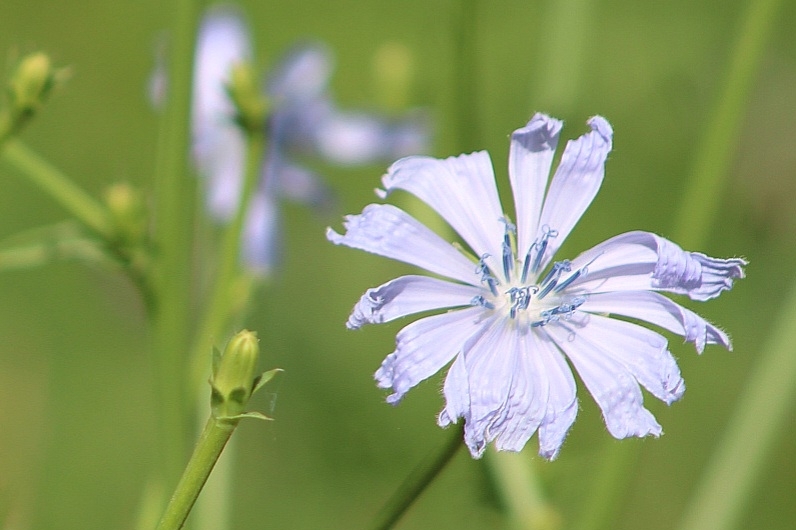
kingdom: Plantae
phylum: Tracheophyta
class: Magnoliopsida
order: Asterales
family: Asteraceae
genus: Cichorium
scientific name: Cichorium intybus
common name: Chicory
